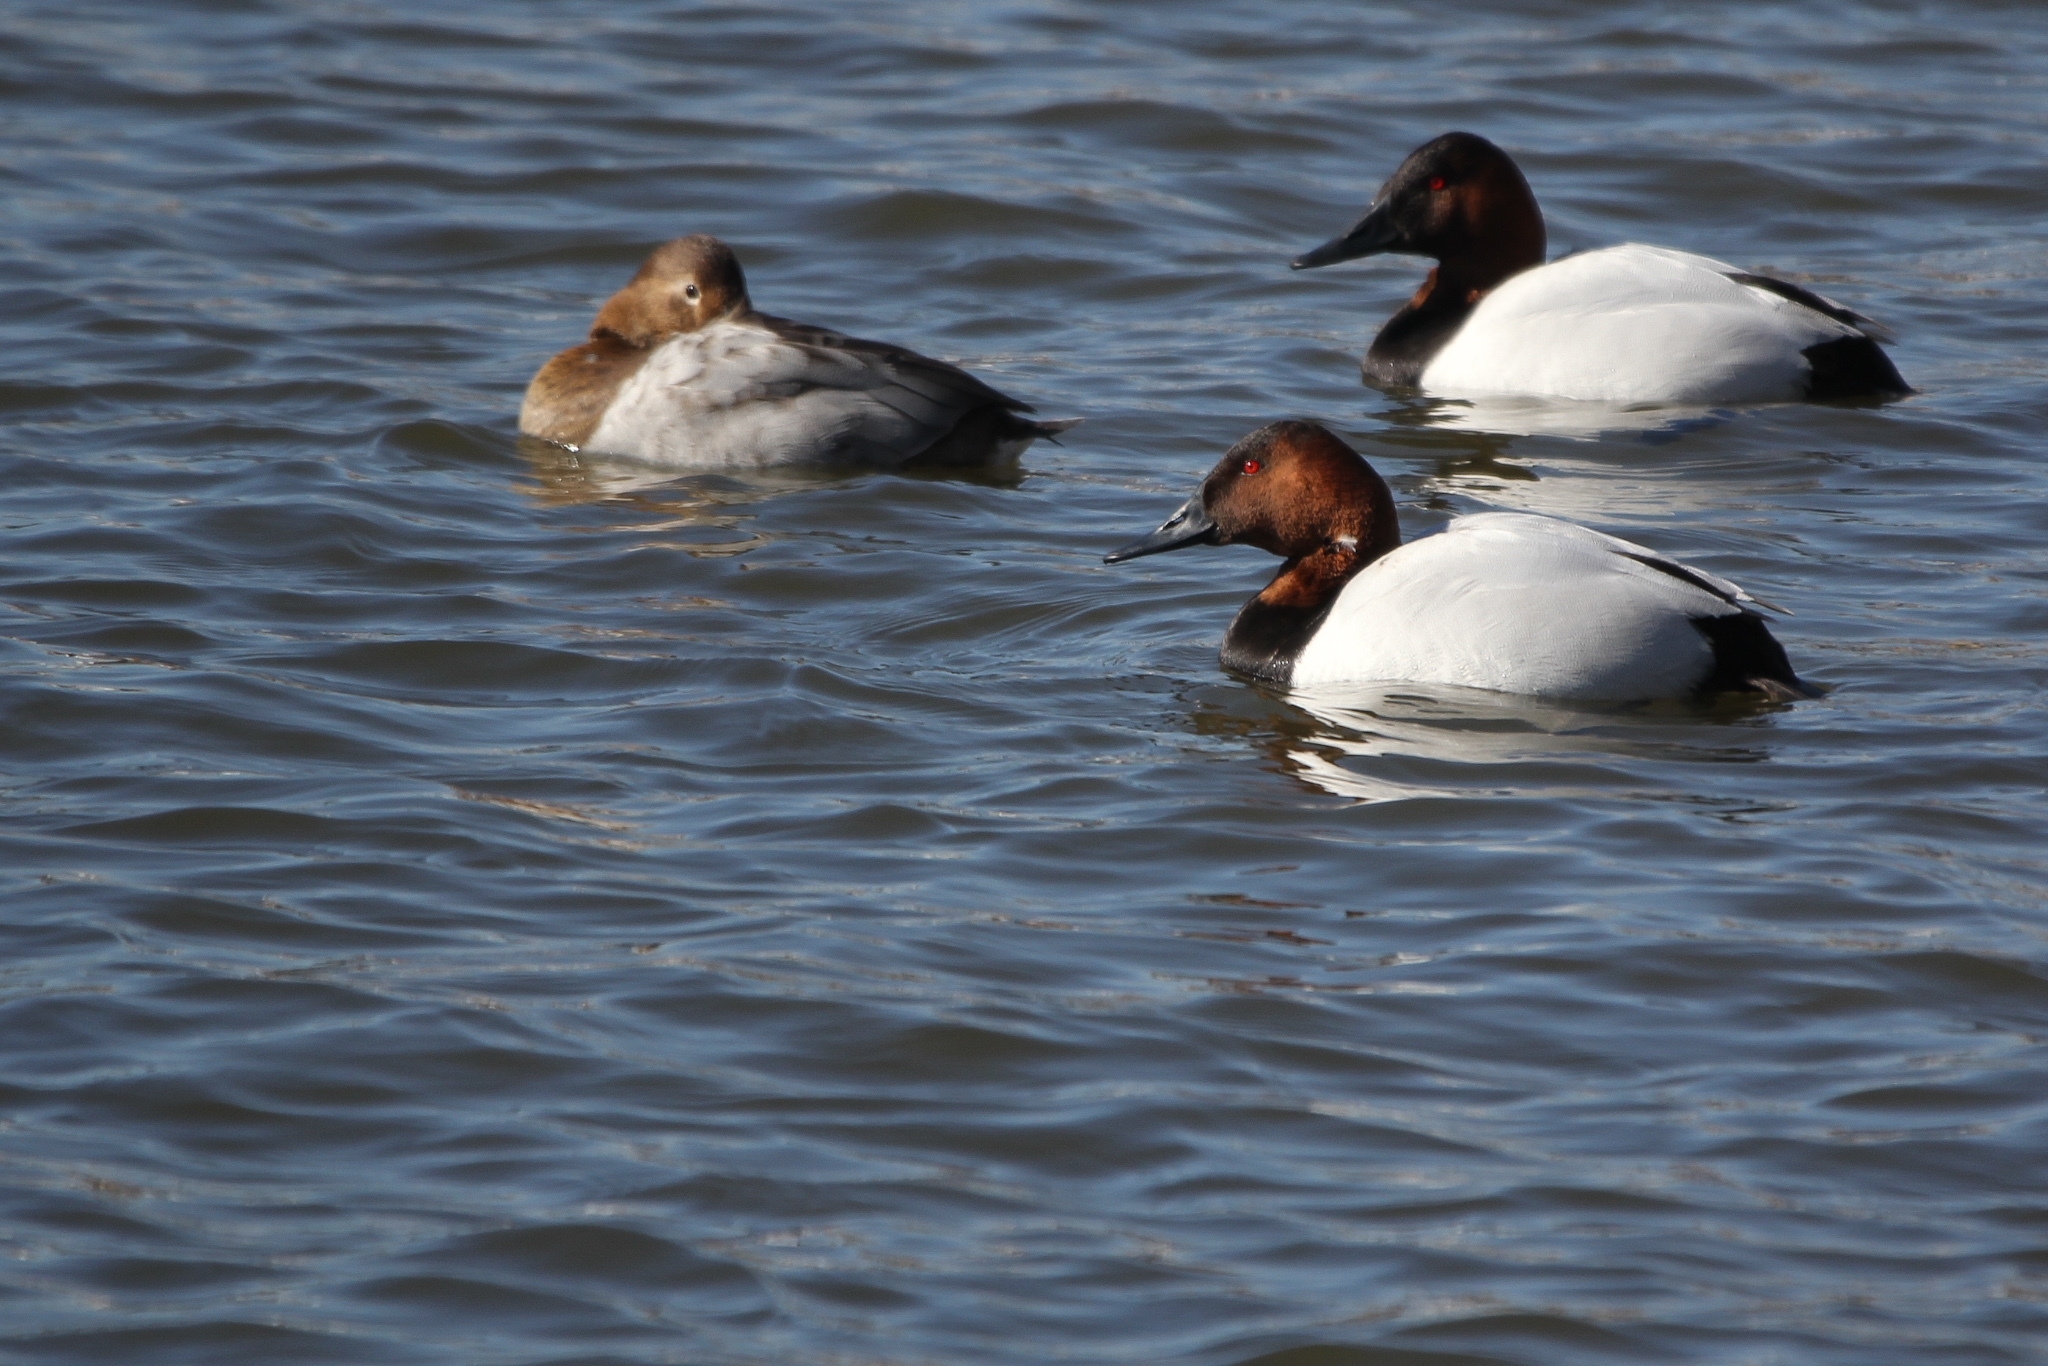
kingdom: Animalia
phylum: Chordata
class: Aves
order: Anseriformes
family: Anatidae
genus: Aythya
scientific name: Aythya valisineria
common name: Canvasback
